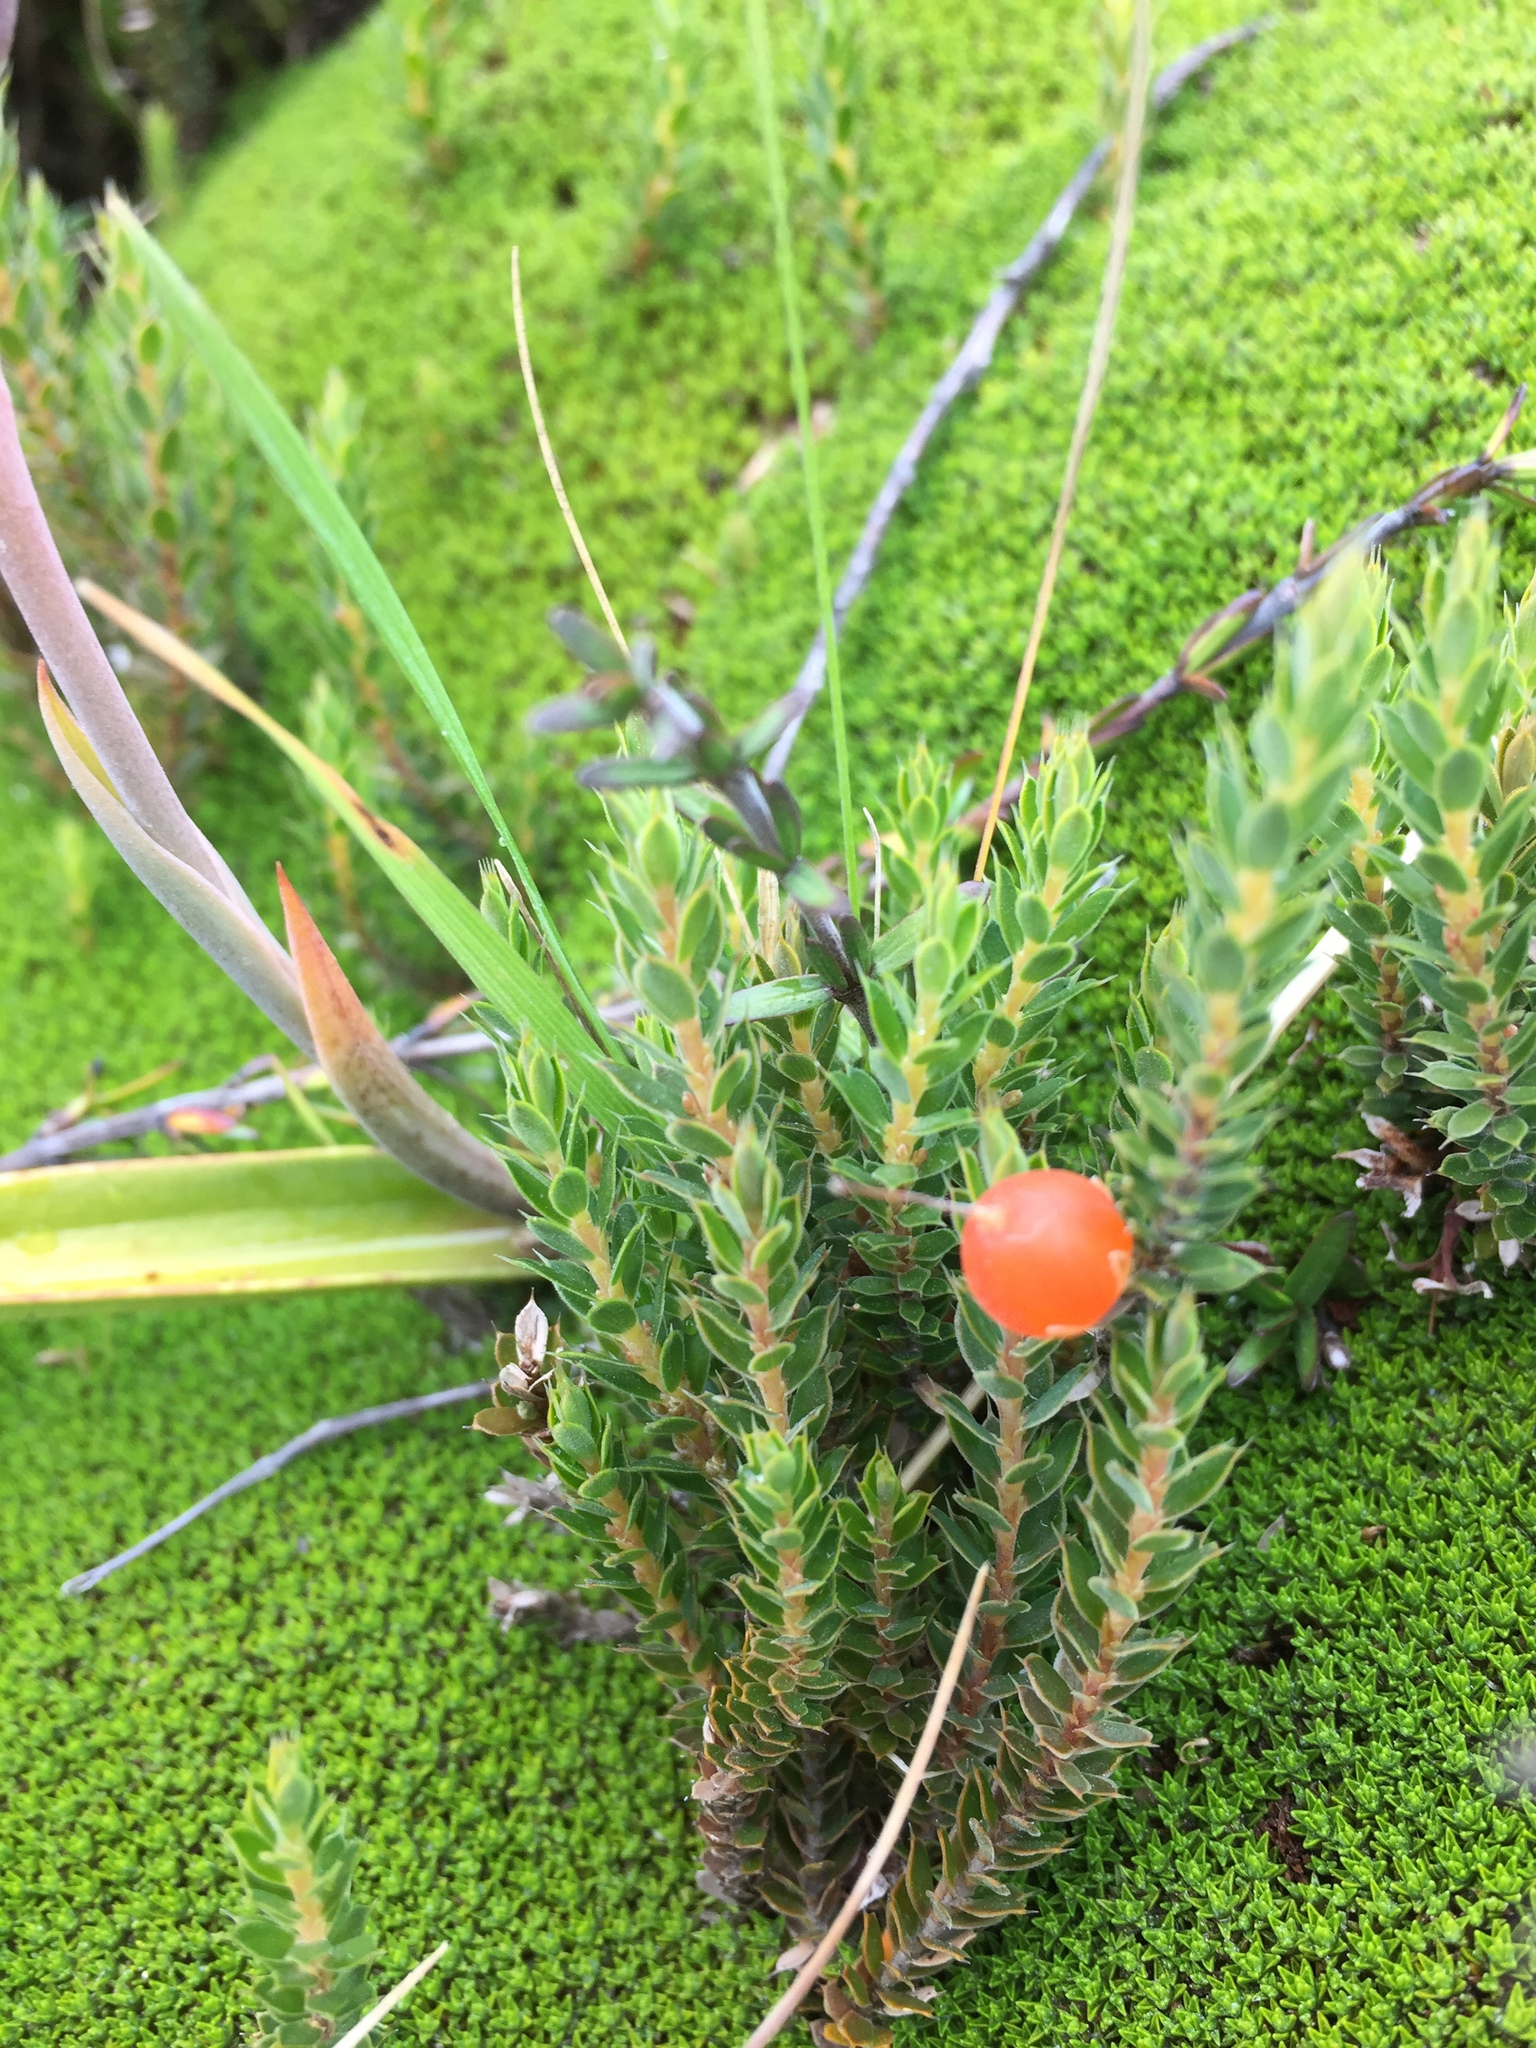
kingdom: Plantae
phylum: Tracheophyta
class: Magnoliopsida
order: Ericales
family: Ericaceae
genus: Styphelia
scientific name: Styphelia nesophila
